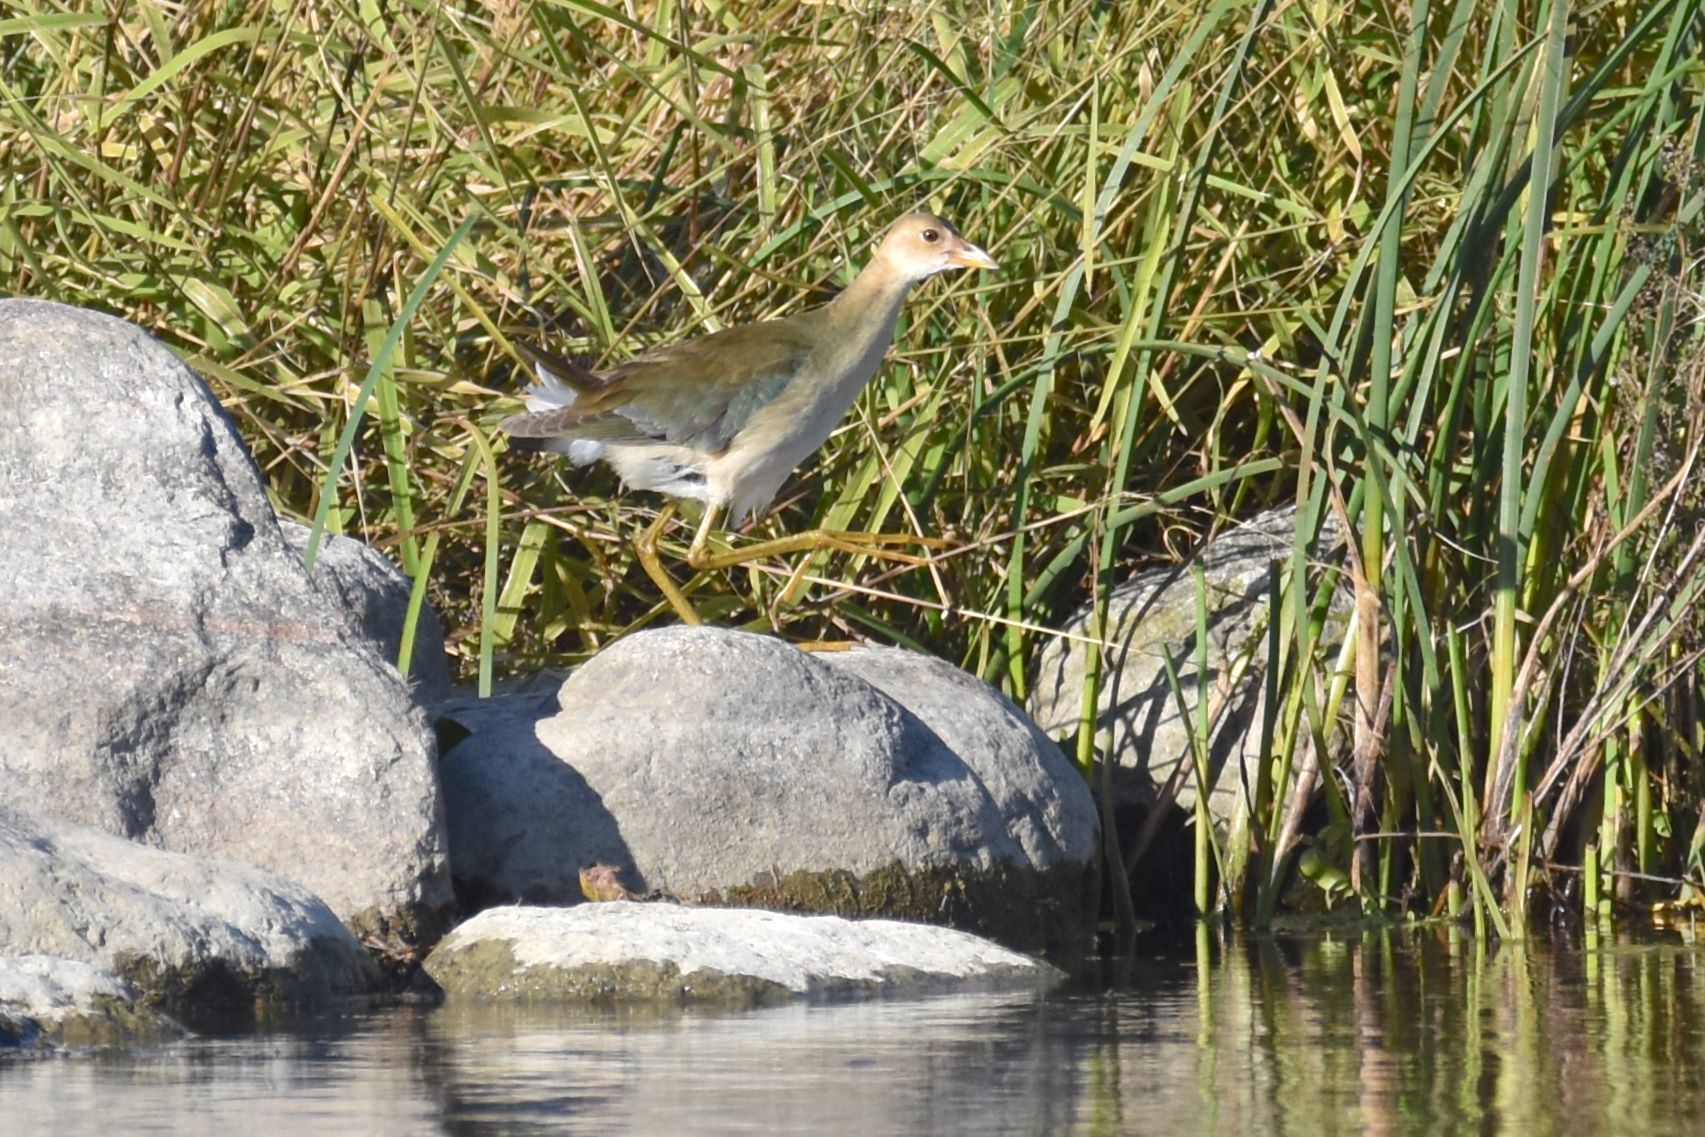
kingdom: Animalia
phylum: Chordata
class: Aves
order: Gruiformes
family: Rallidae
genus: Porphyrio
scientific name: Porphyrio martinica
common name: Purple gallinule
